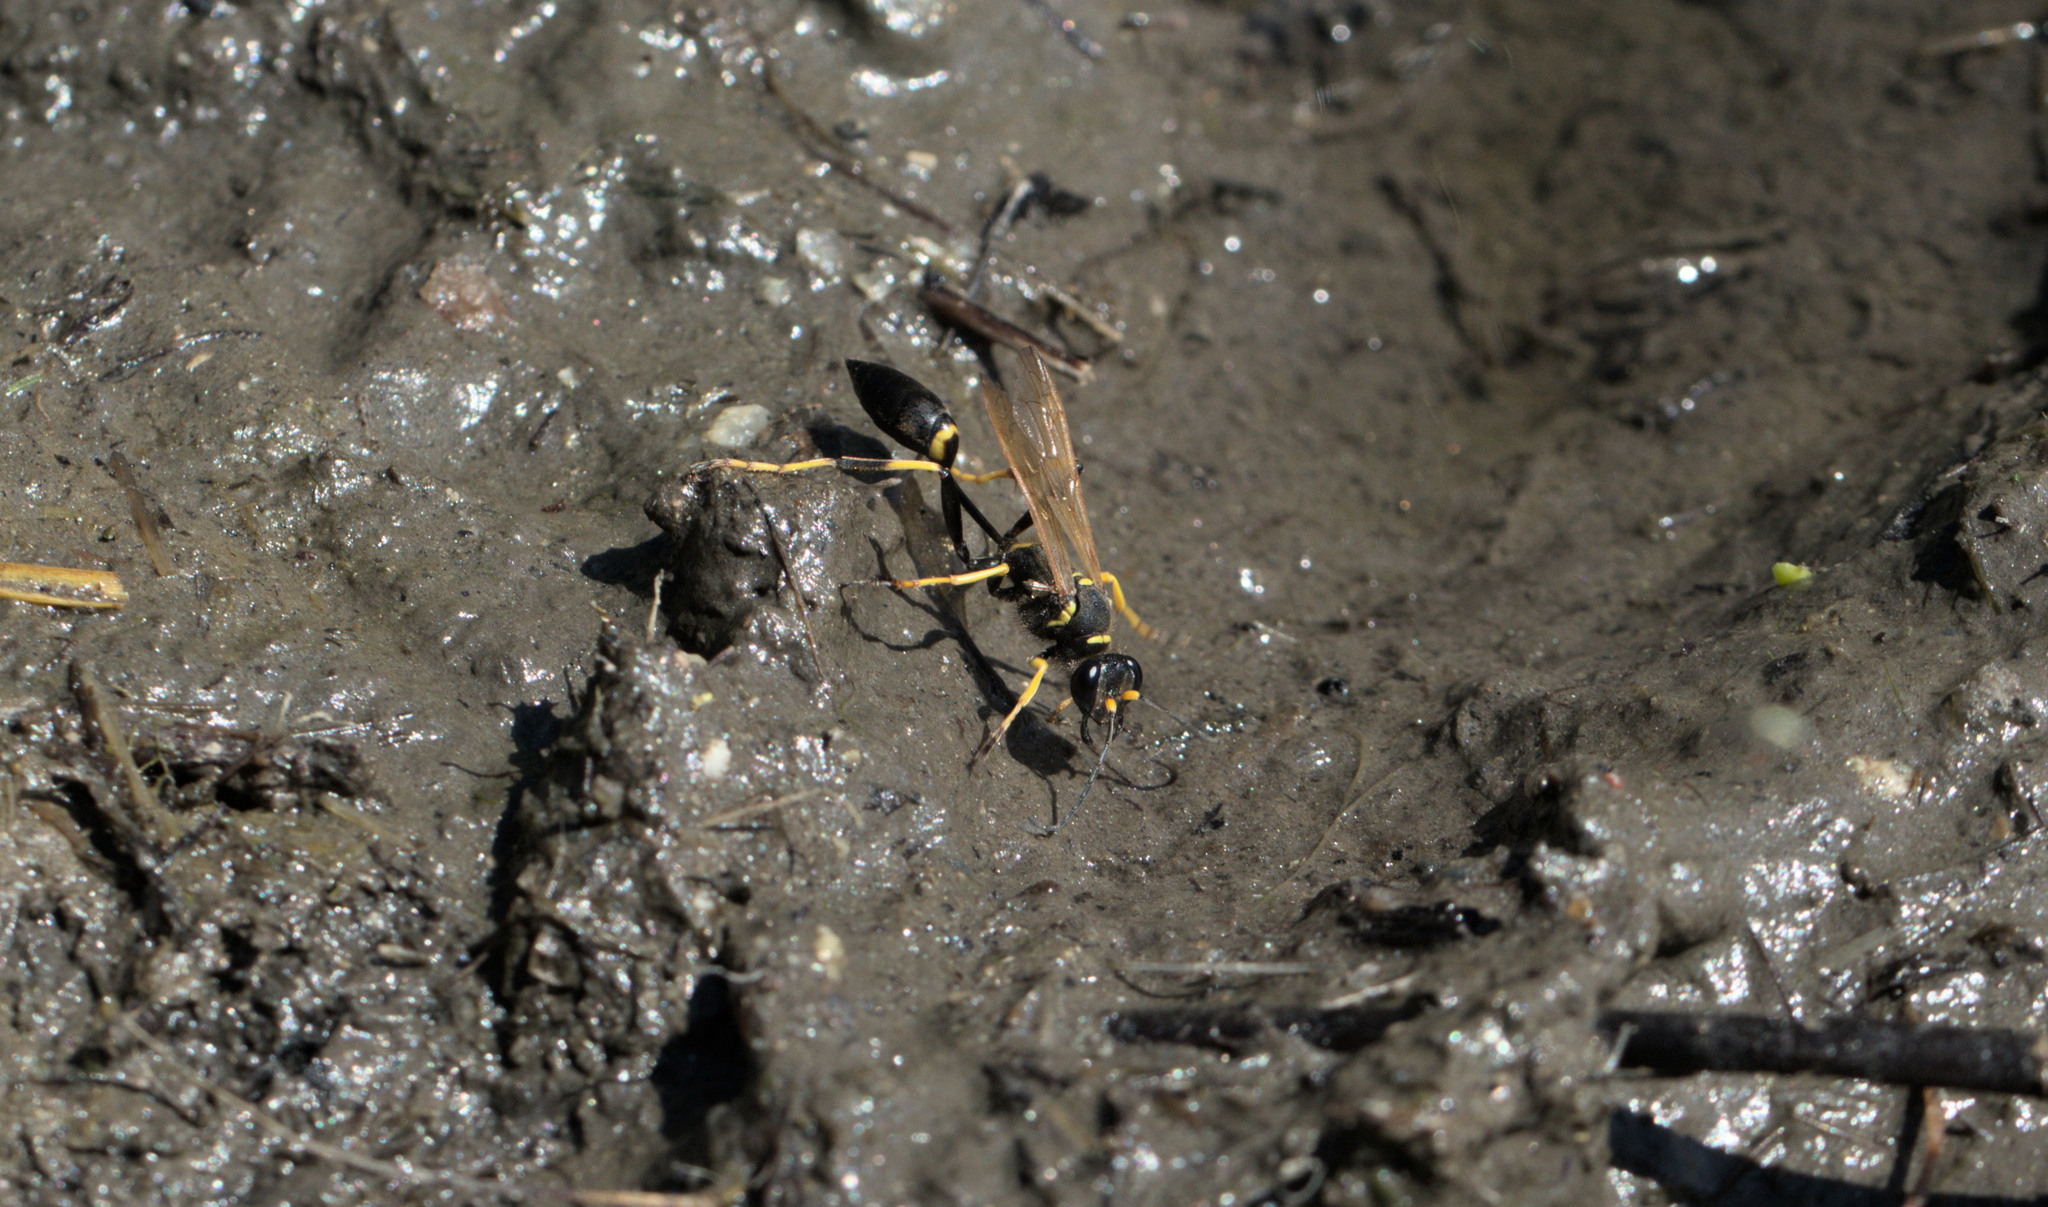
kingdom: Animalia
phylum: Arthropoda
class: Insecta
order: Hymenoptera
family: Sphecidae
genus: Sceliphron
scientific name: Sceliphron caementarium
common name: Mud dauber
